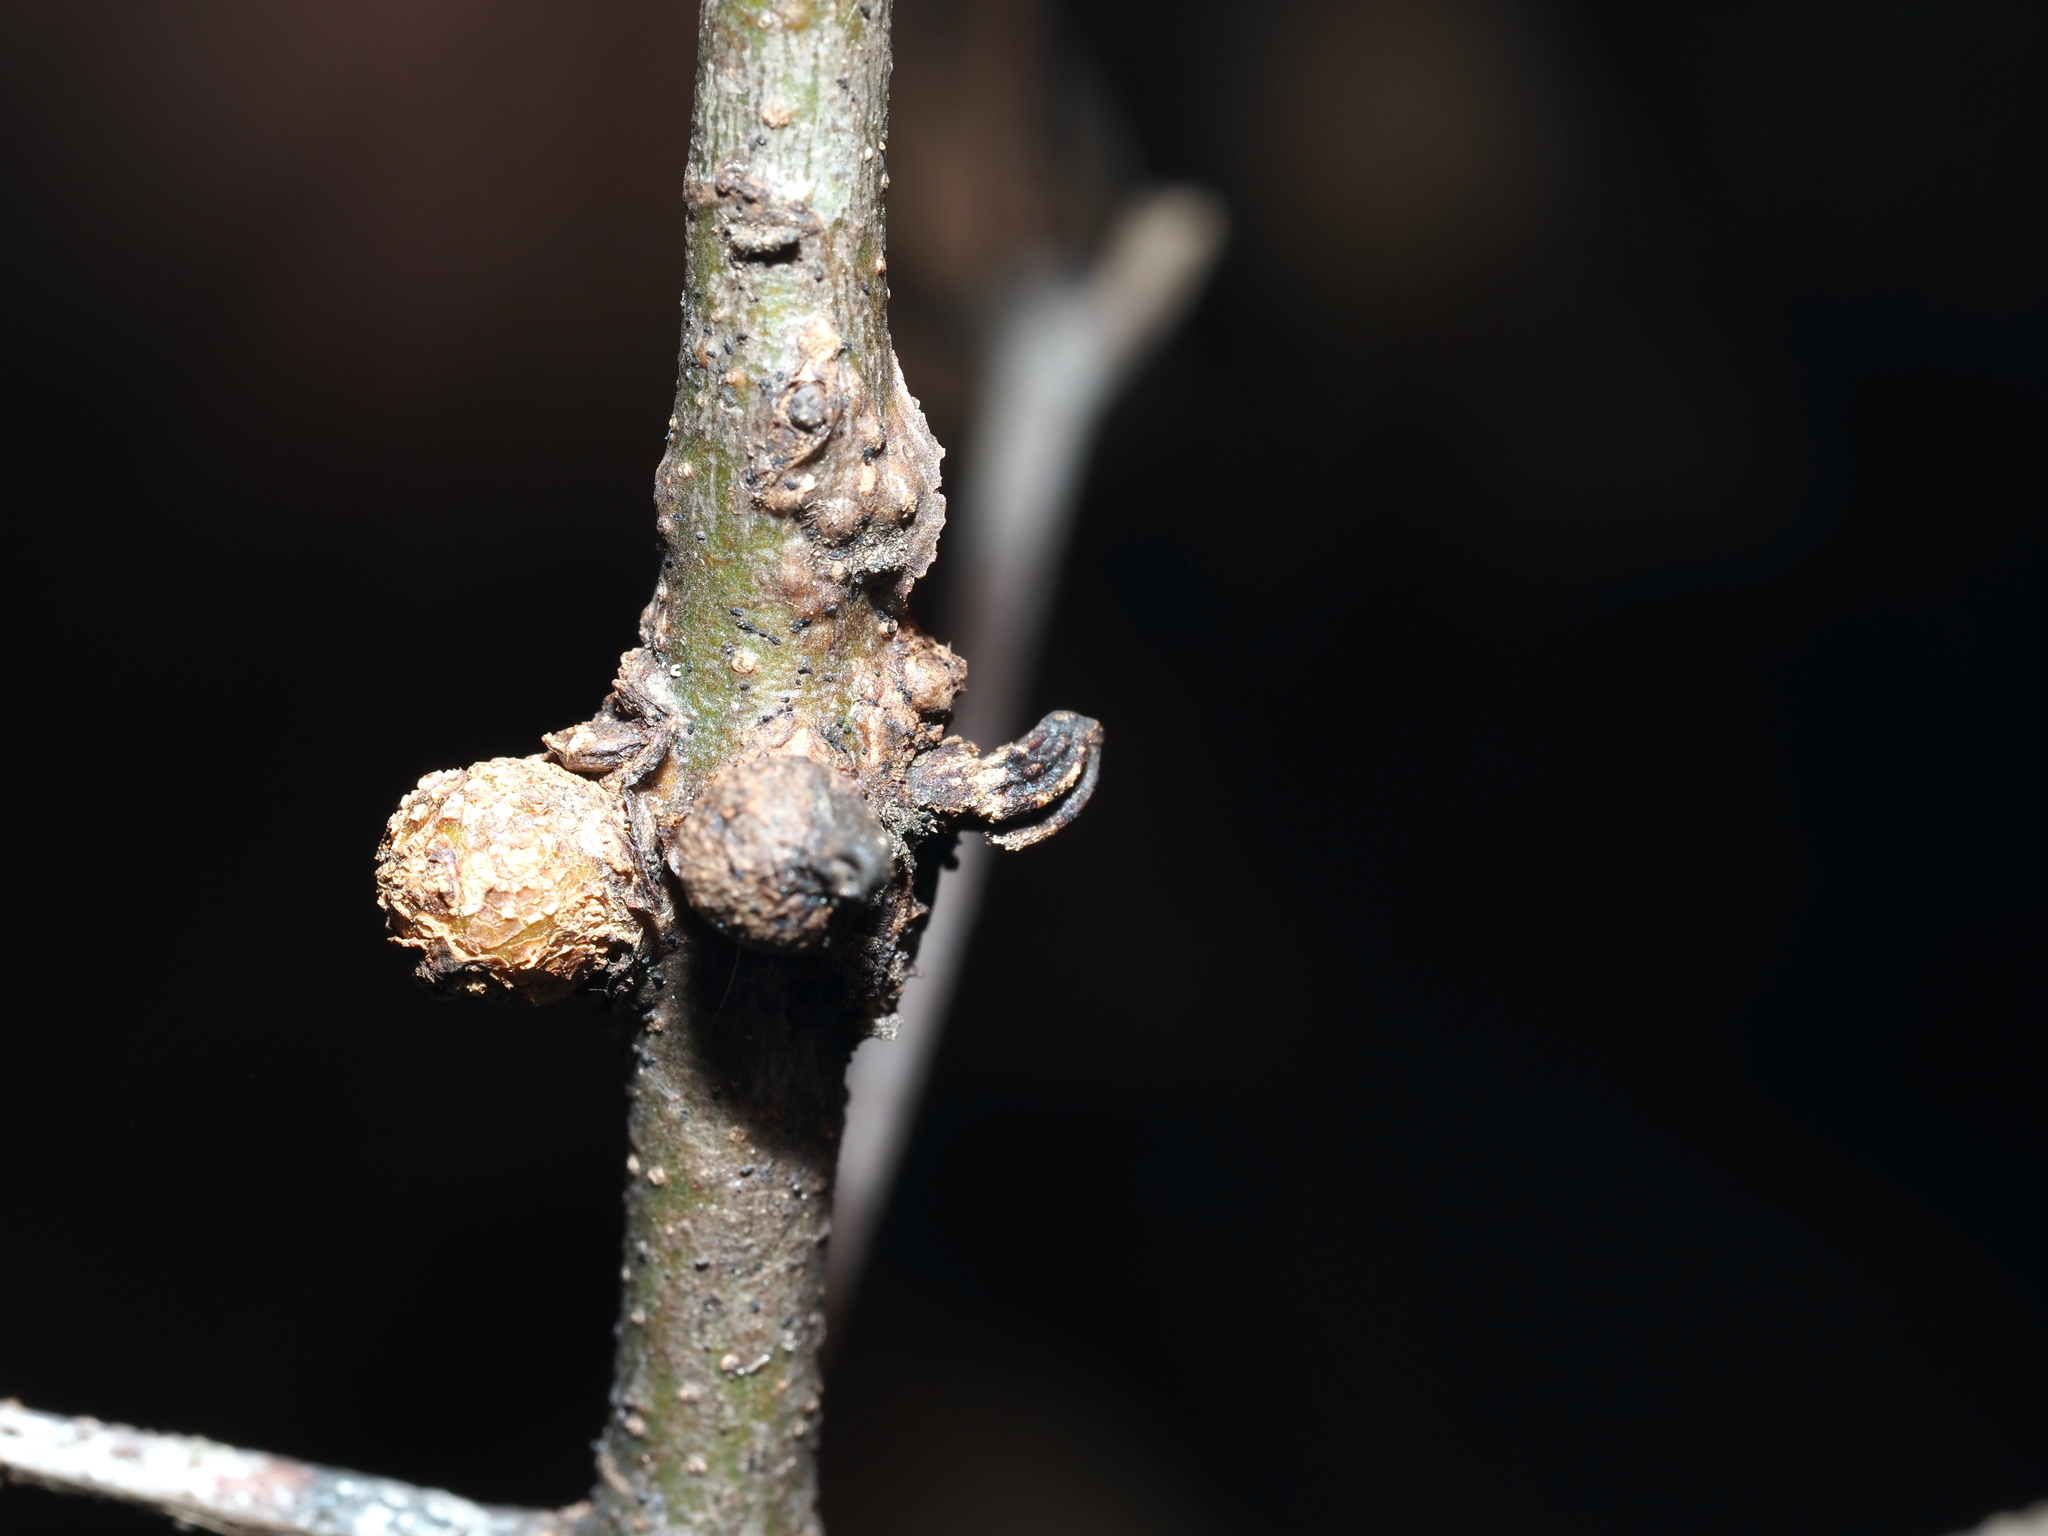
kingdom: Animalia
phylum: Arthropoda
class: Insecta
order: Hymenoptera
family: Cynipidae
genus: Synergus
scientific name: Synergus lignicola
